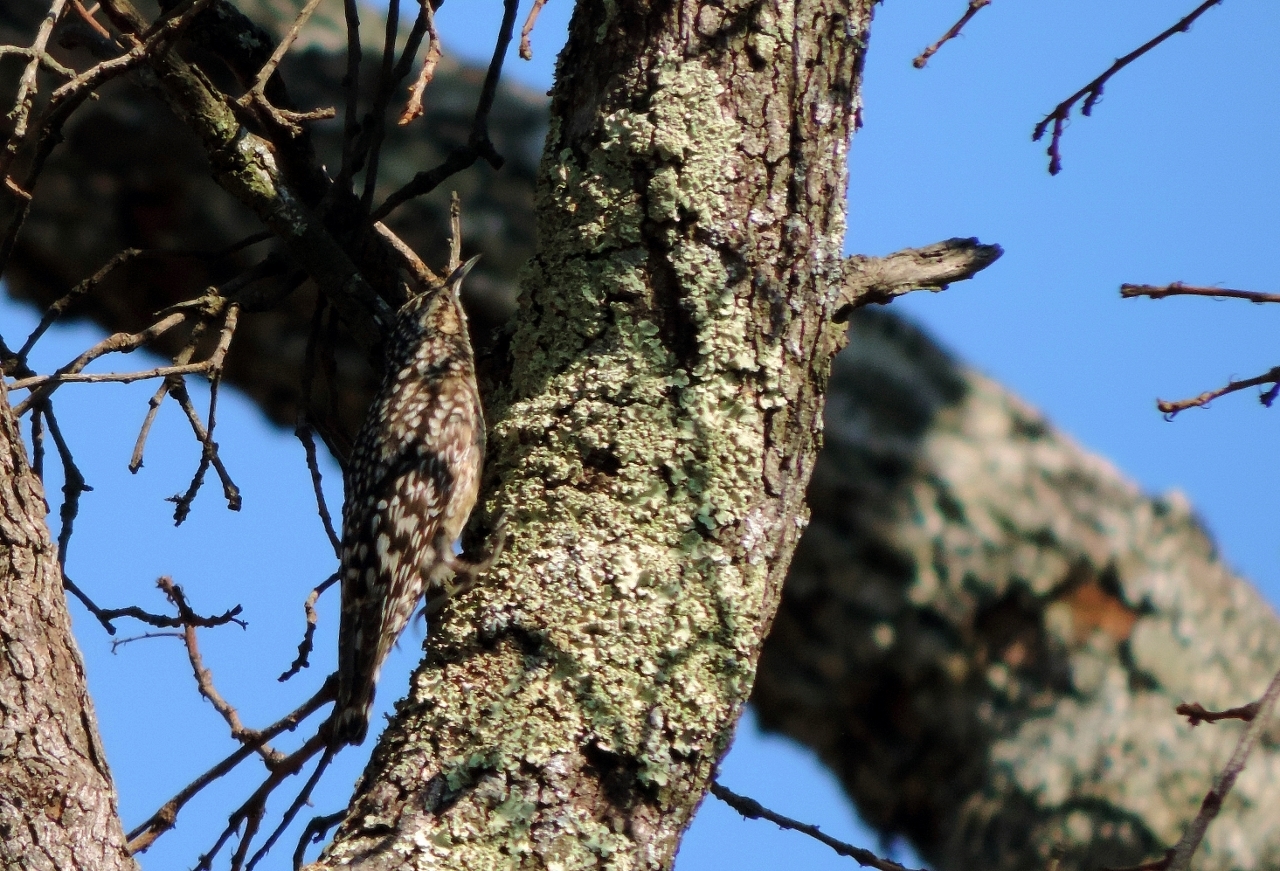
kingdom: Animalia
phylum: Chordata
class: Aves
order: Passeriformes
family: Certhiidae
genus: Salpornis
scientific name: Salpornis salvadori
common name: African spotted creeper
